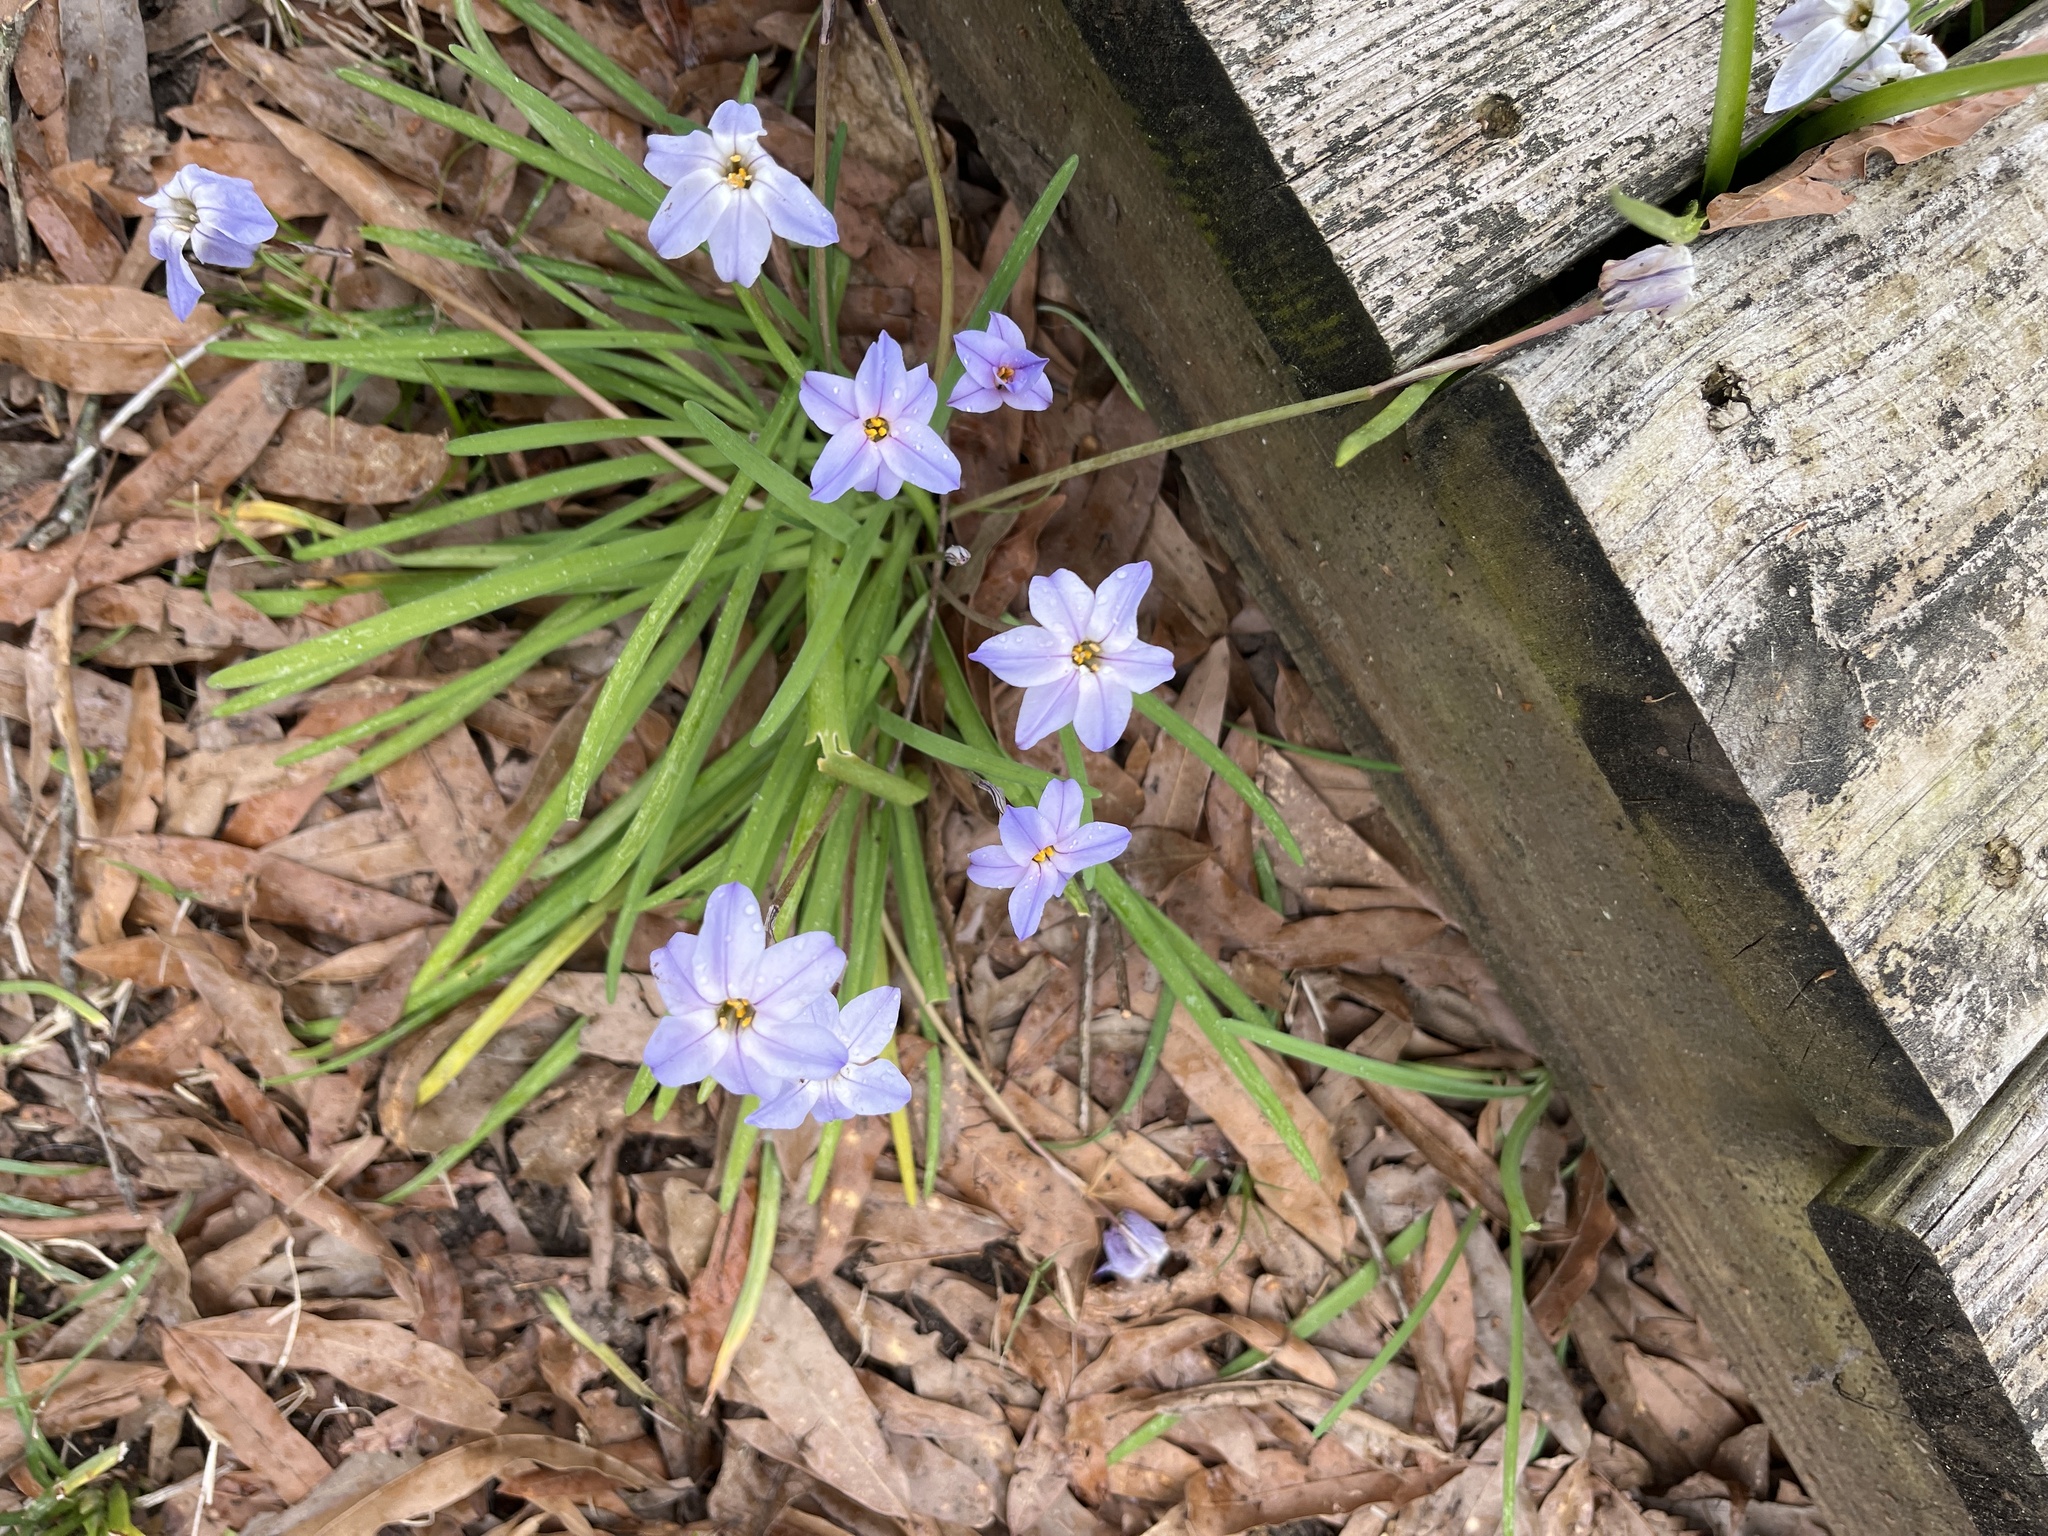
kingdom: Plantae
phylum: Tracheophyta
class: Liliopsida
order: Asparagales
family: Amaryllidaceae
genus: Ipheion
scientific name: Ipheion uniflorum
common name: Spring starflower
